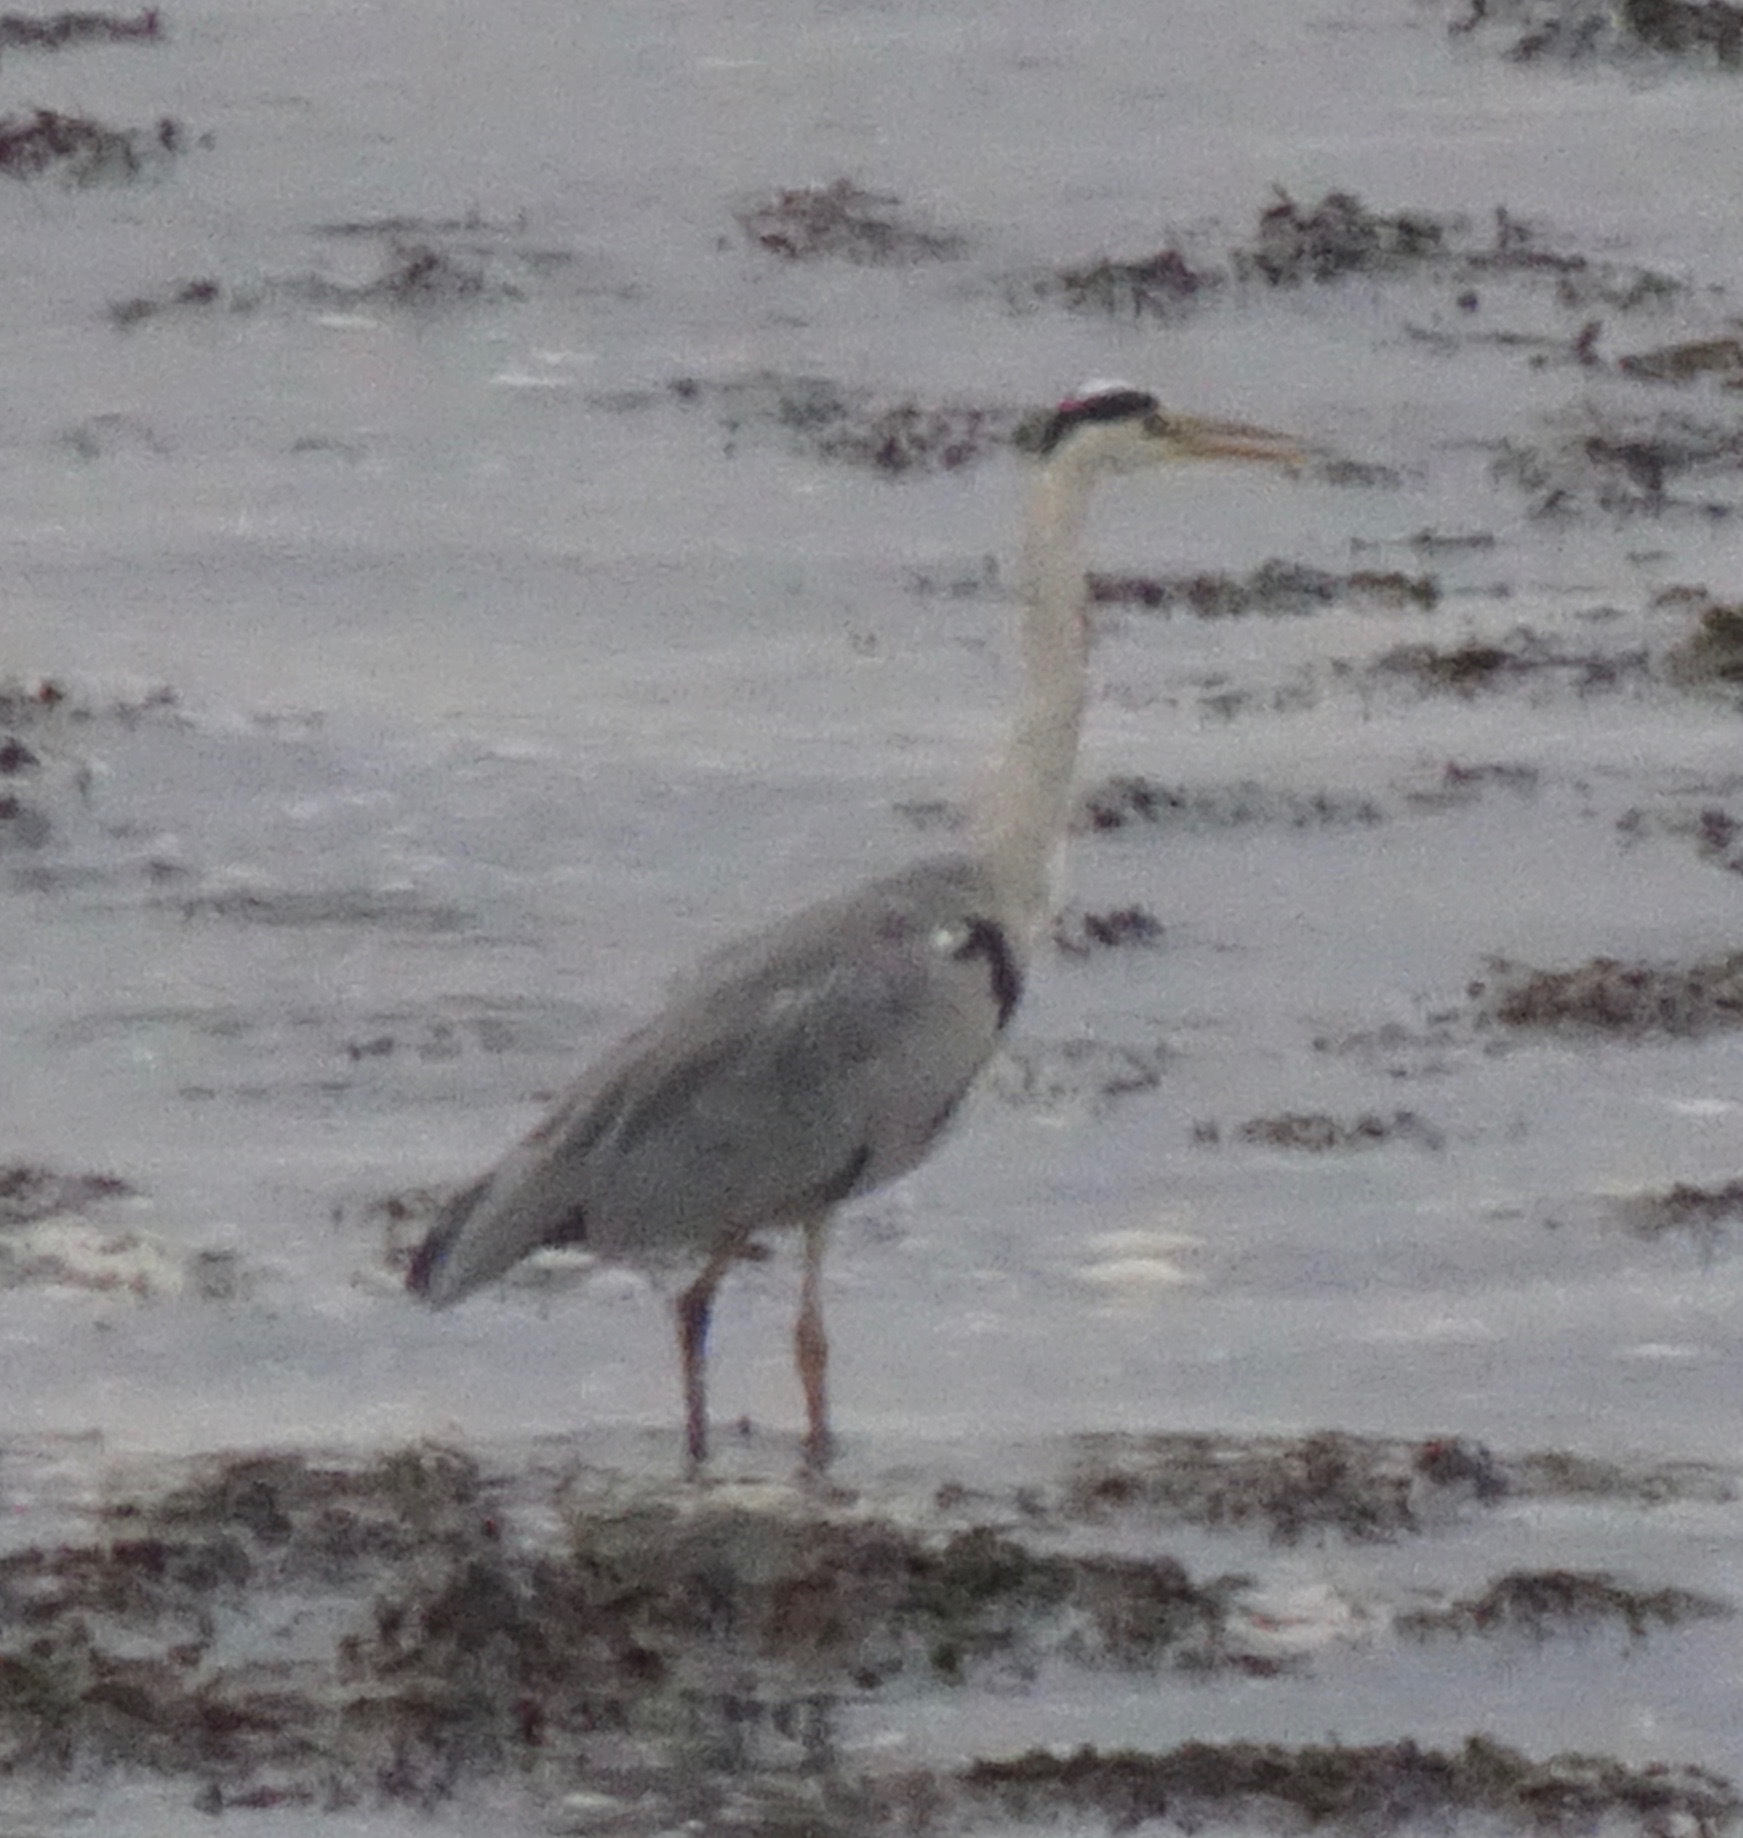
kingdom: Animalia
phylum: Chordata
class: Aves
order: Pelecaniformes
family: Ardeidae
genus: Ardea
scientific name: Ardea cinerea
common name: Grey heron
